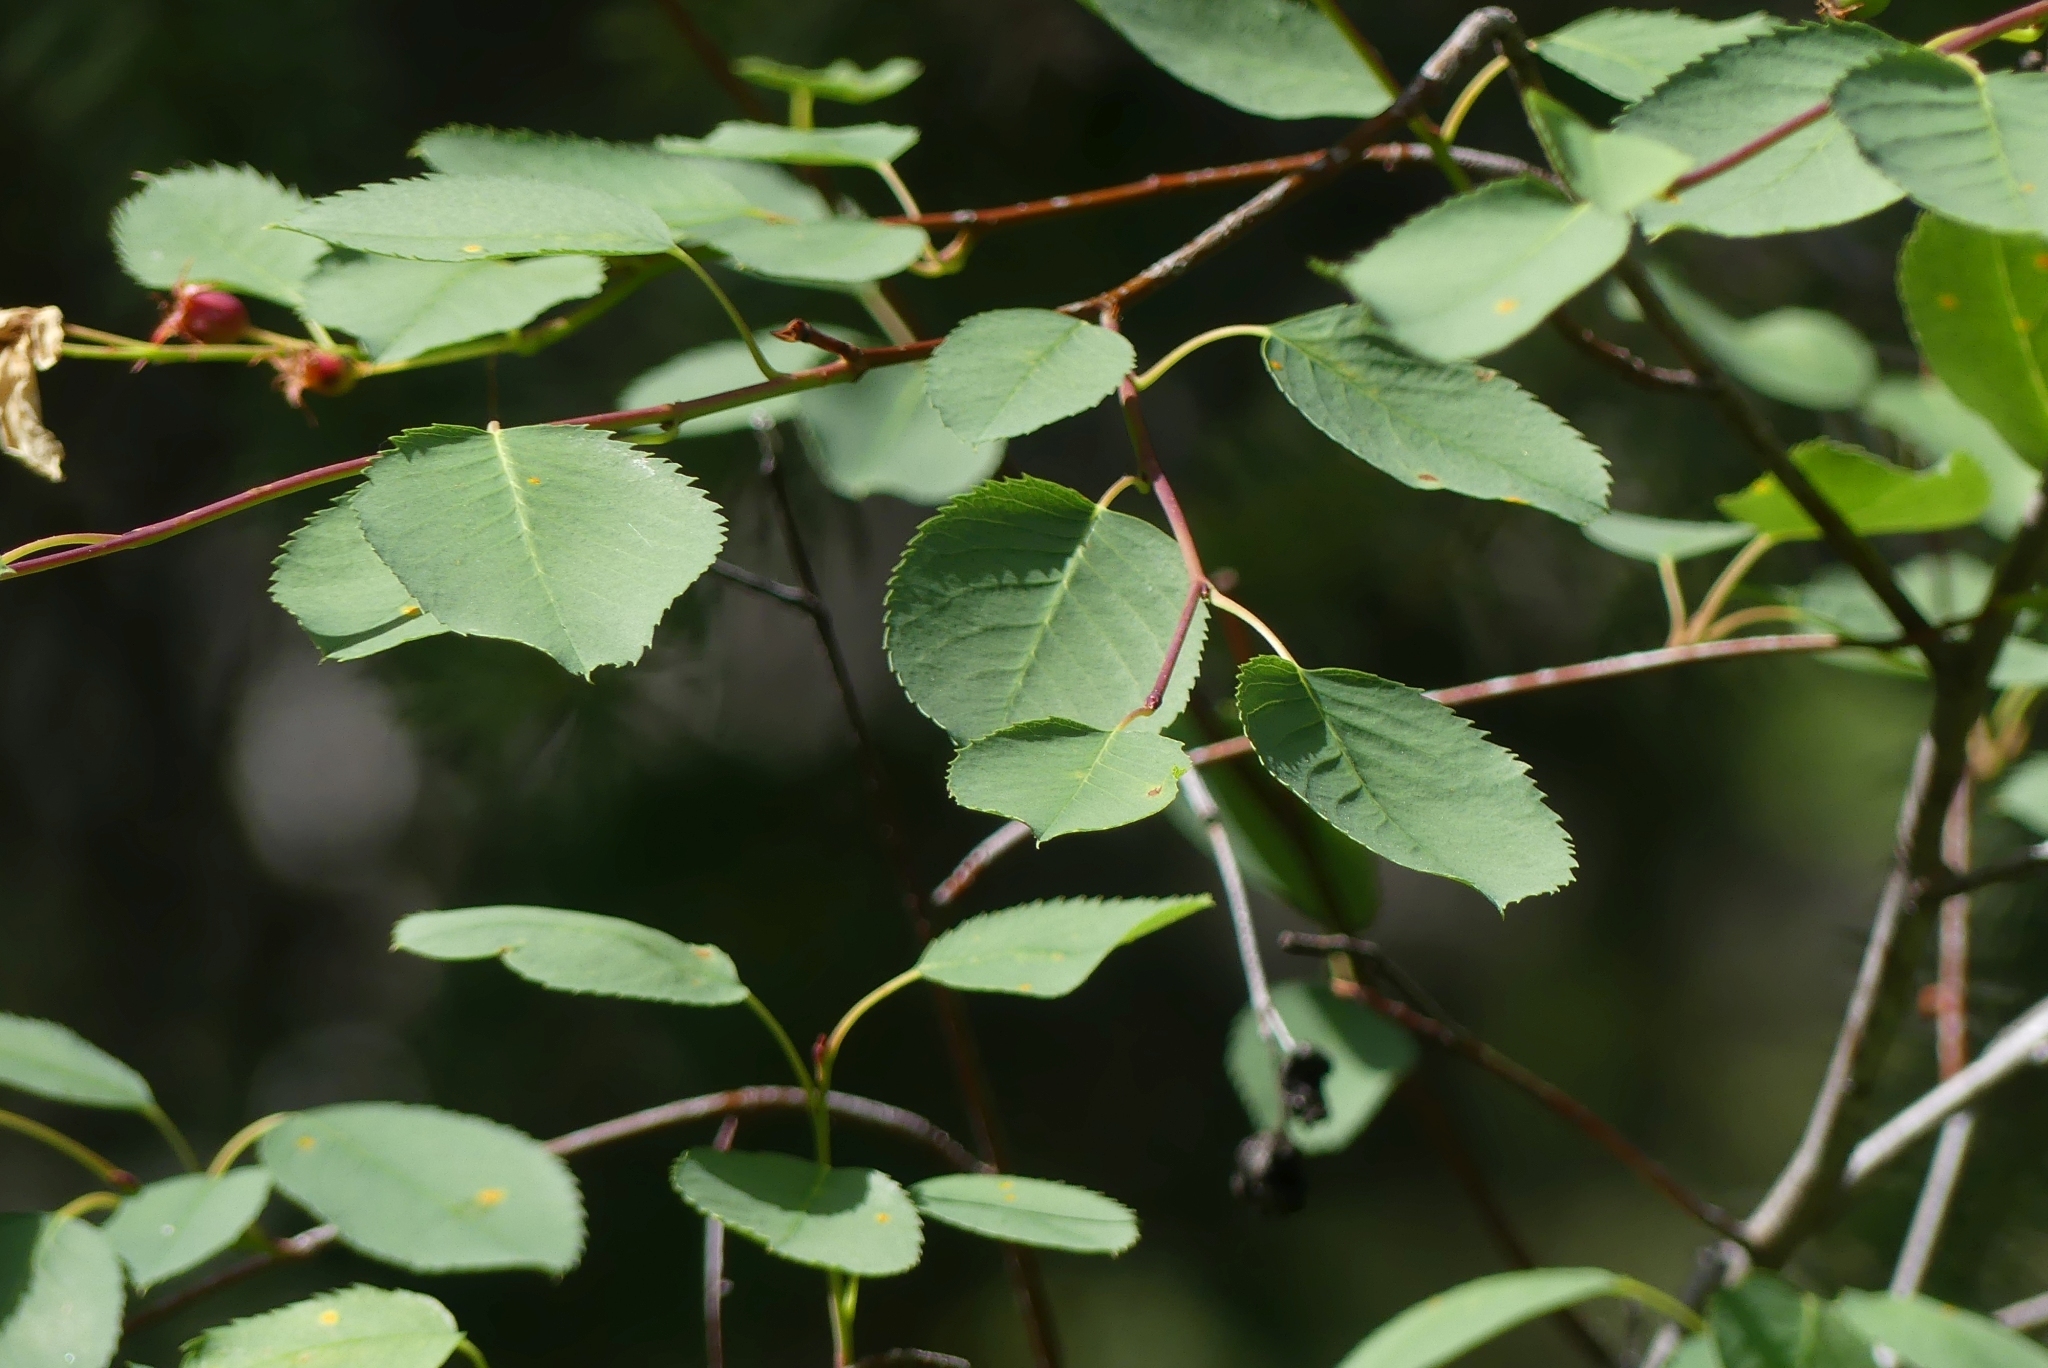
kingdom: Plantae
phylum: Tracheophyta
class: Magnoliopsida
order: Rosales
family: Rosaceae
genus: Amelanchier
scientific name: Amelanchier alnifolia
